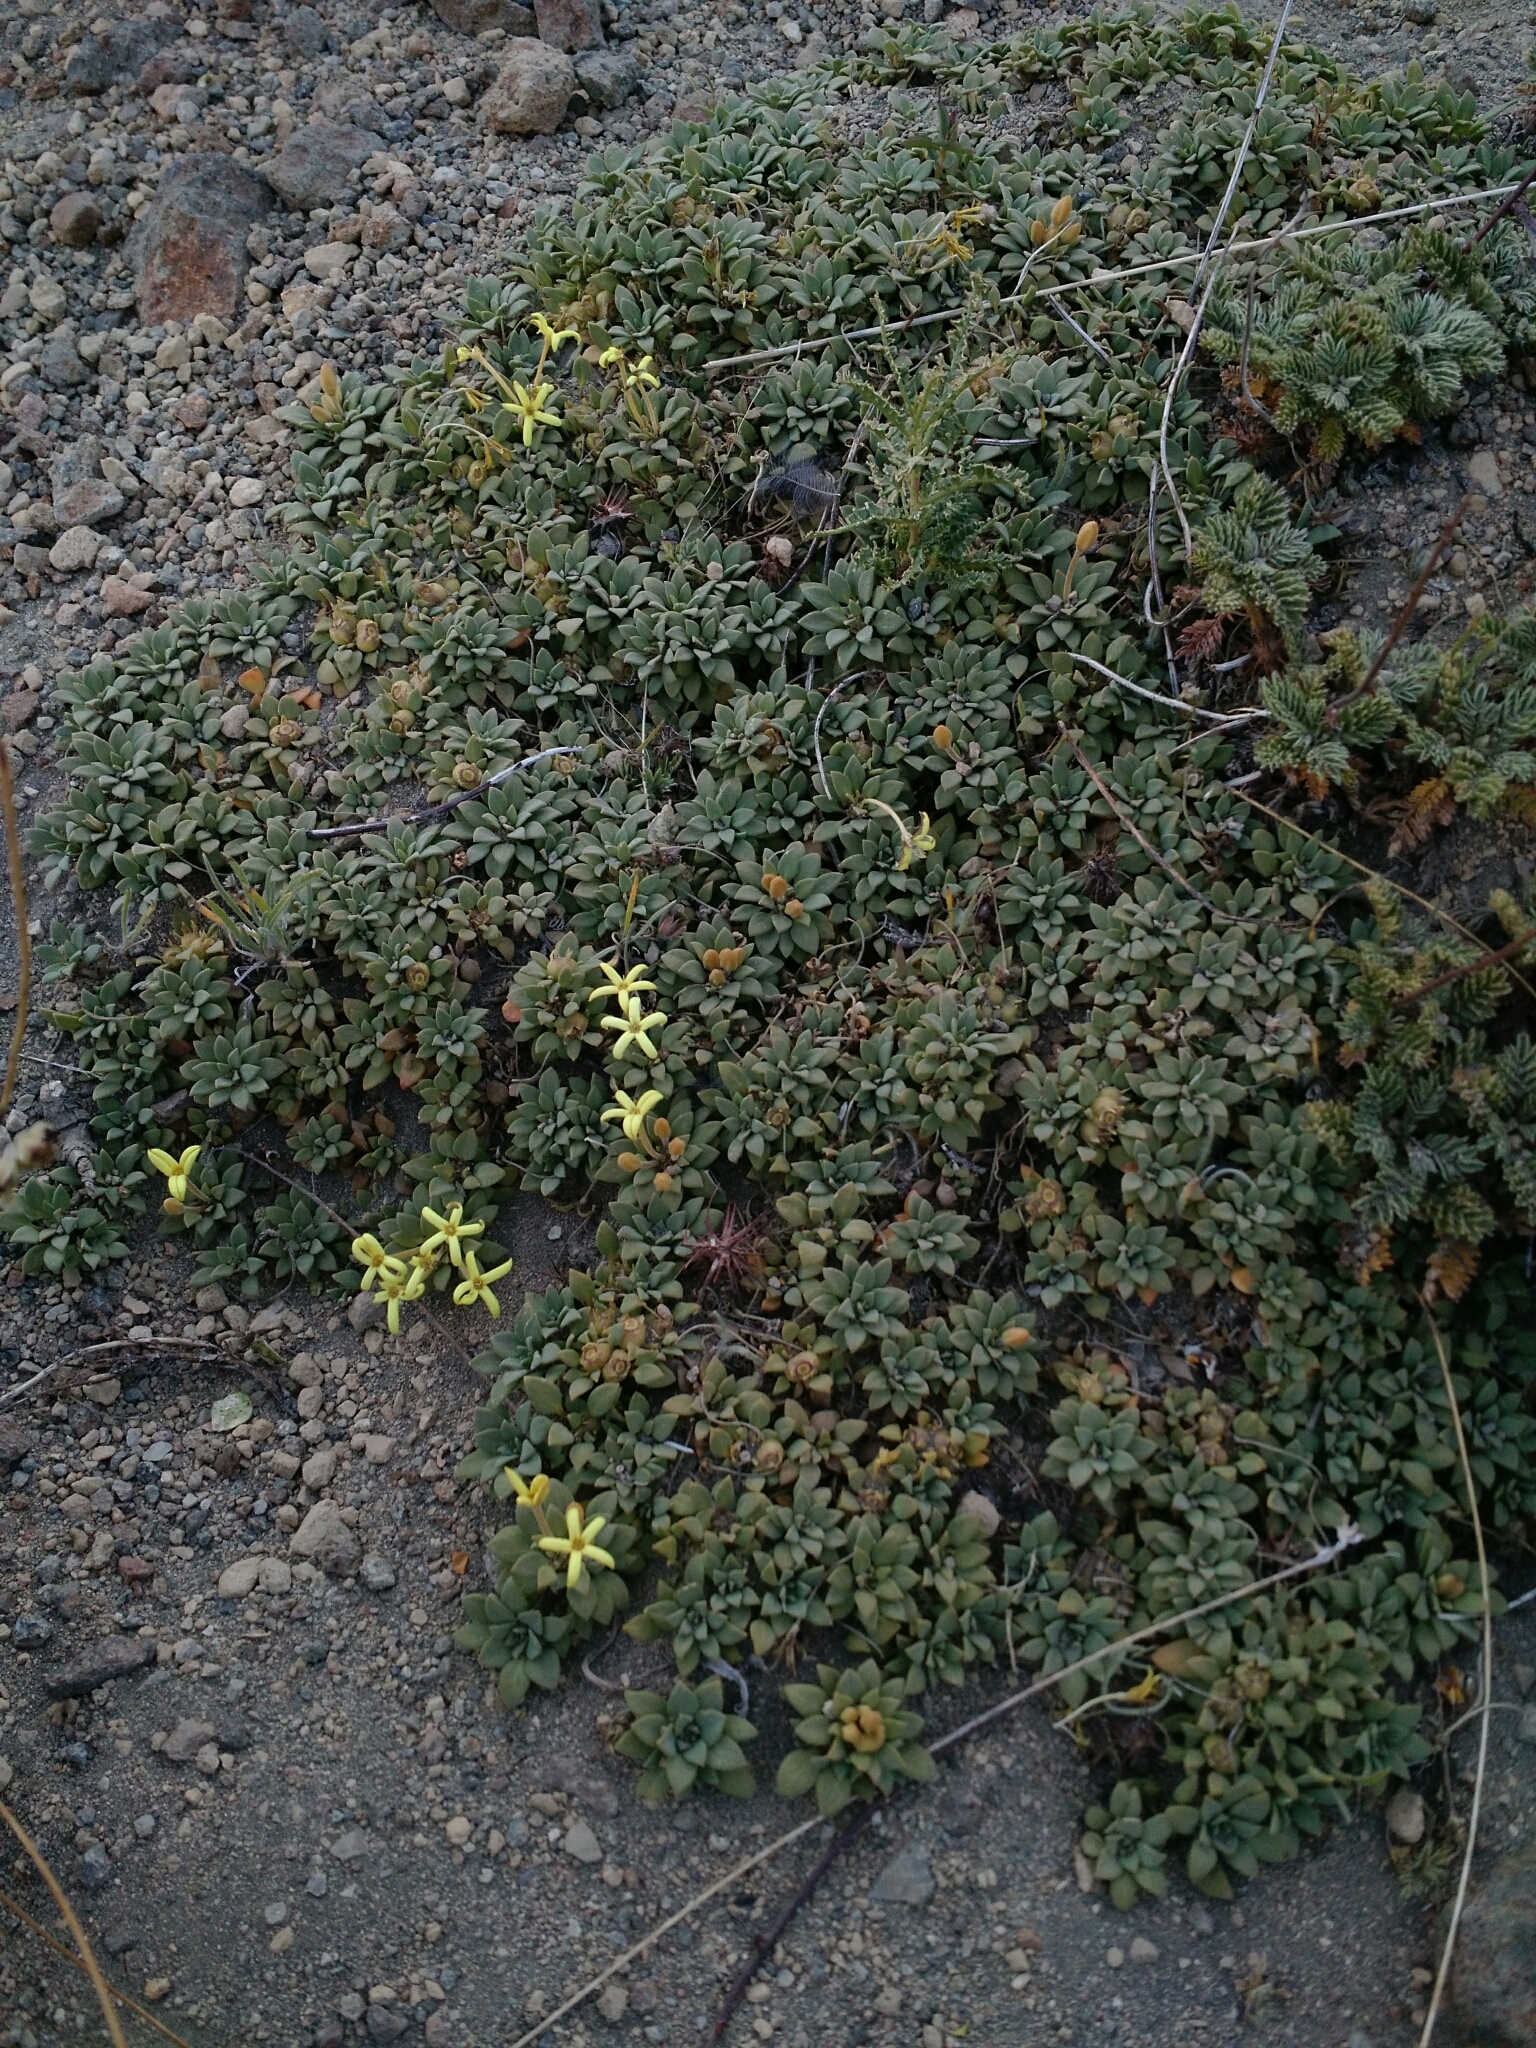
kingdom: Plantae
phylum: Tracheophyta
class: Magnoliopsida
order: Gentianales
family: Rubiaceae
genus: Oreopolus
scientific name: Oreopolus glacialis
